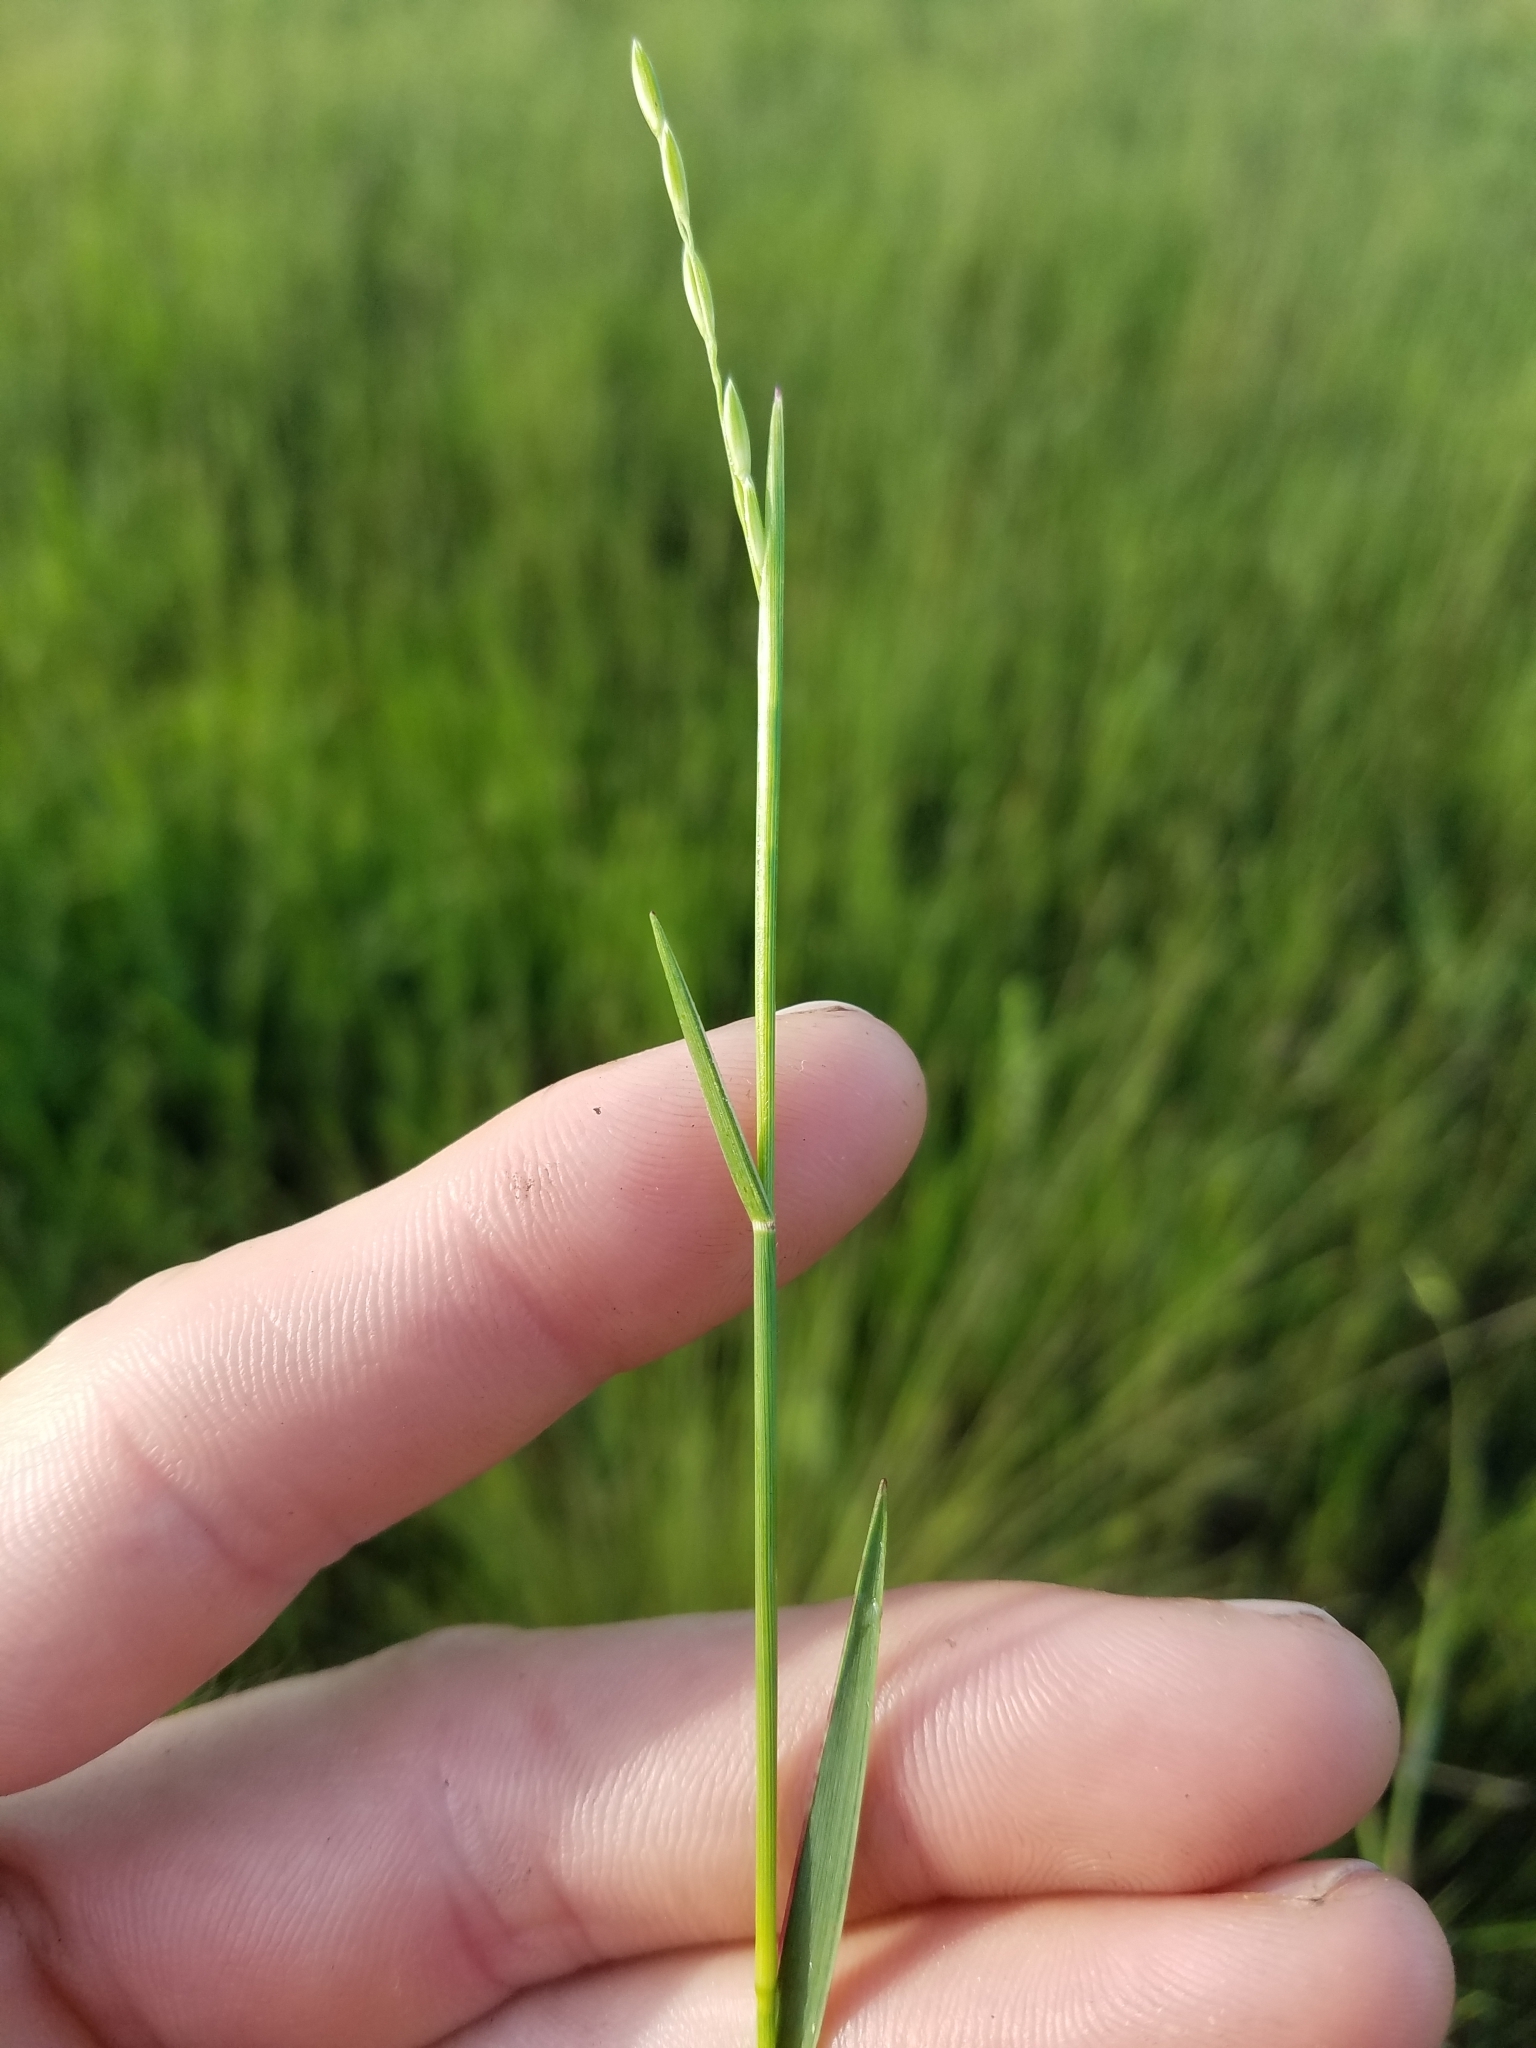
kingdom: Plantae
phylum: Tracheophyta
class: Liliopsida
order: Poales
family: Poaceae
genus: Amphicarpum
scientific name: Amphicarpum muehlenbergianum
